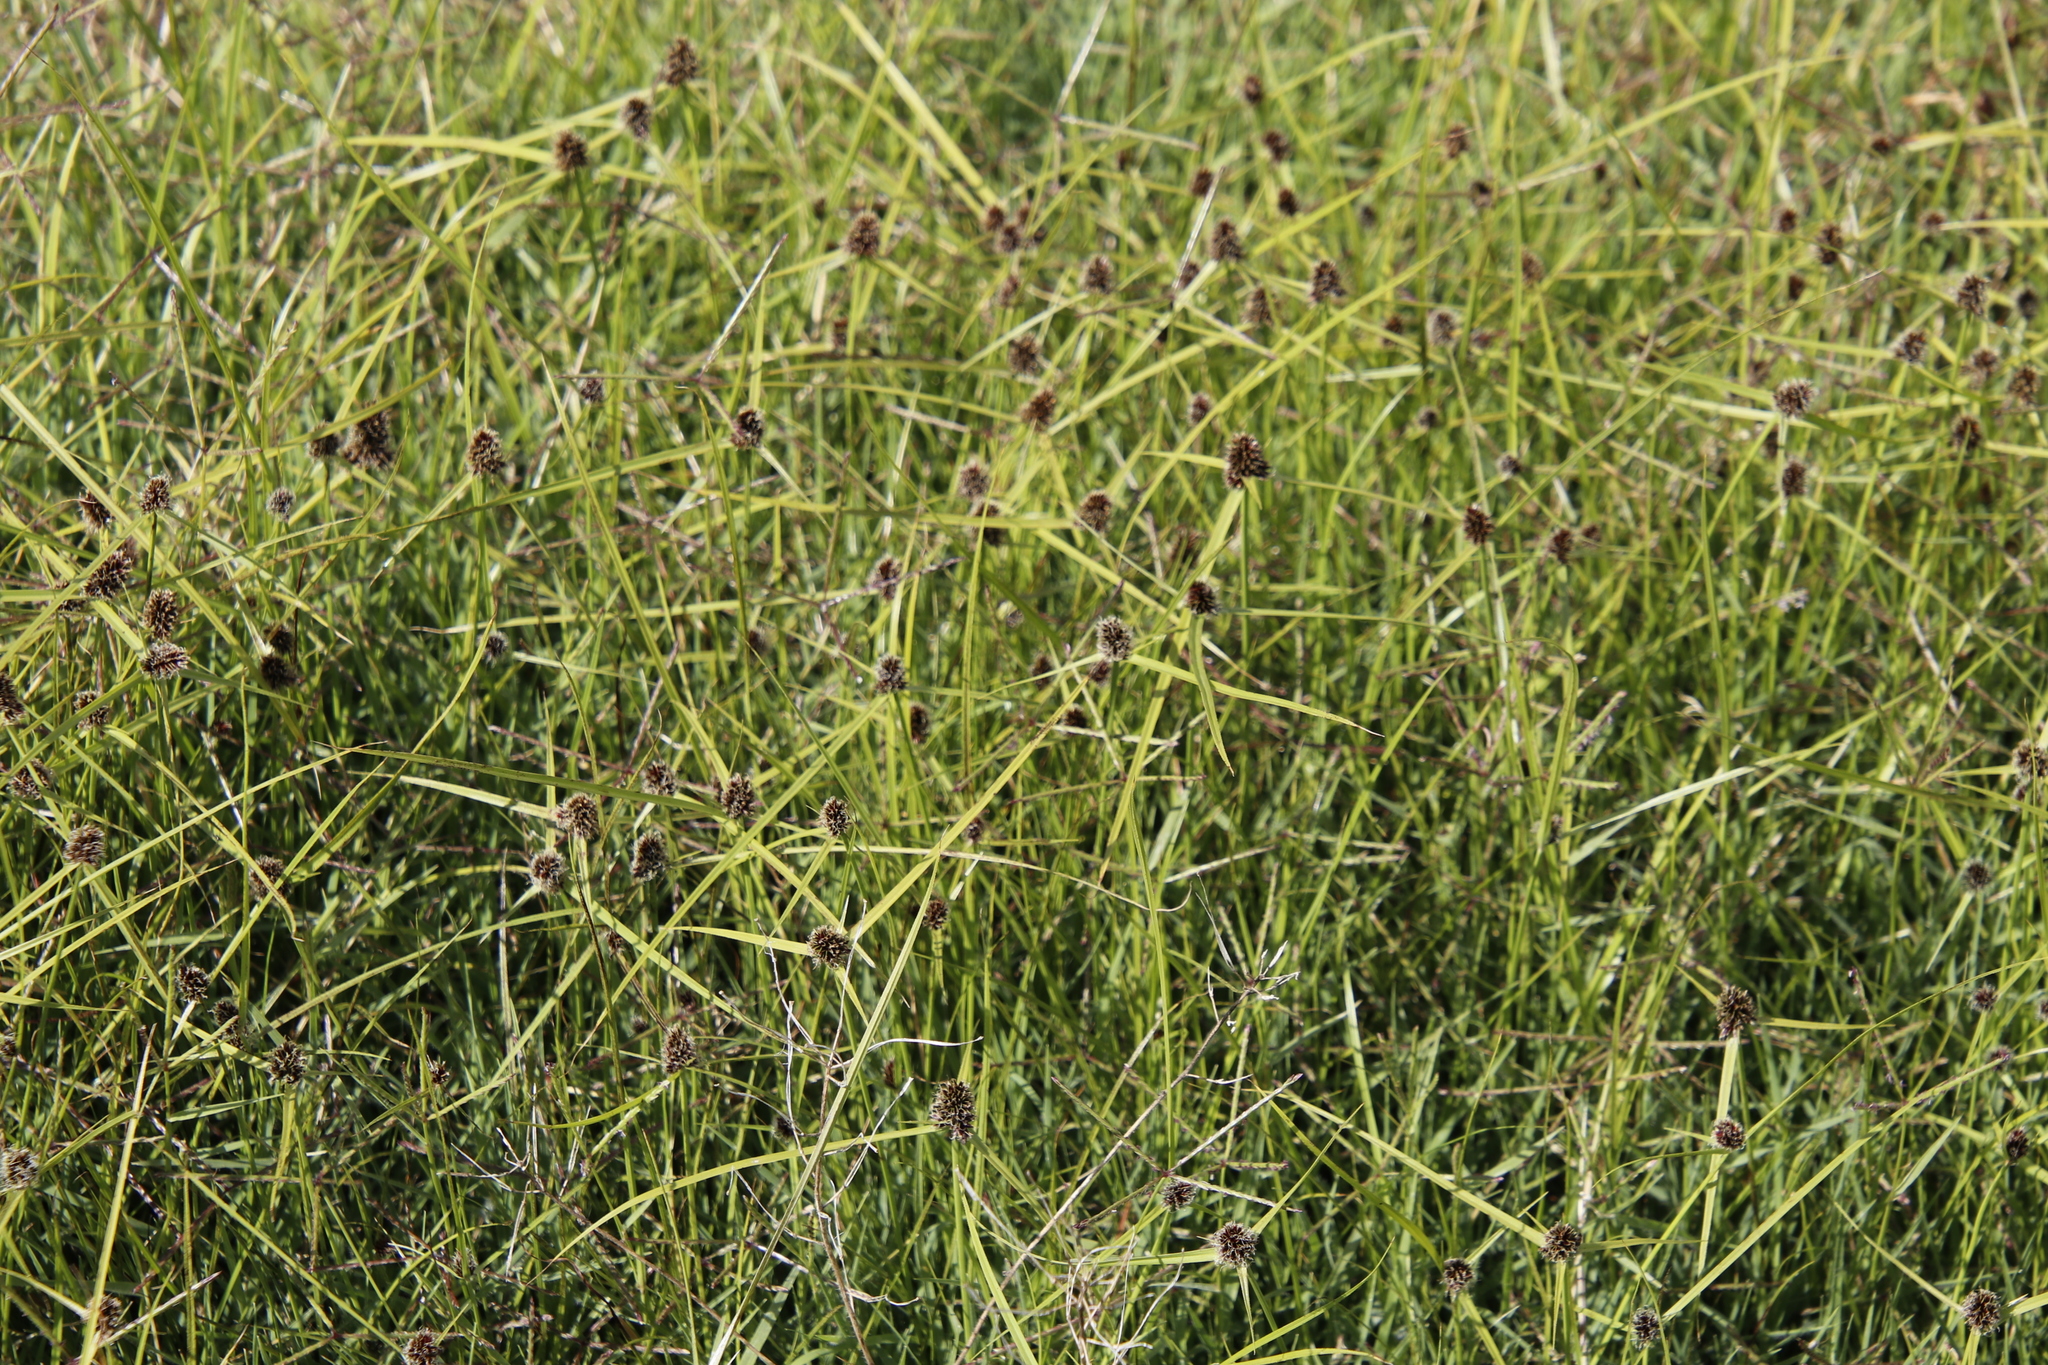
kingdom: Plantae
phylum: Tracheophyta
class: Liliopsida
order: Poales
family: Cyperaceae
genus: Cyperus
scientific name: Cyperus bracheilema
